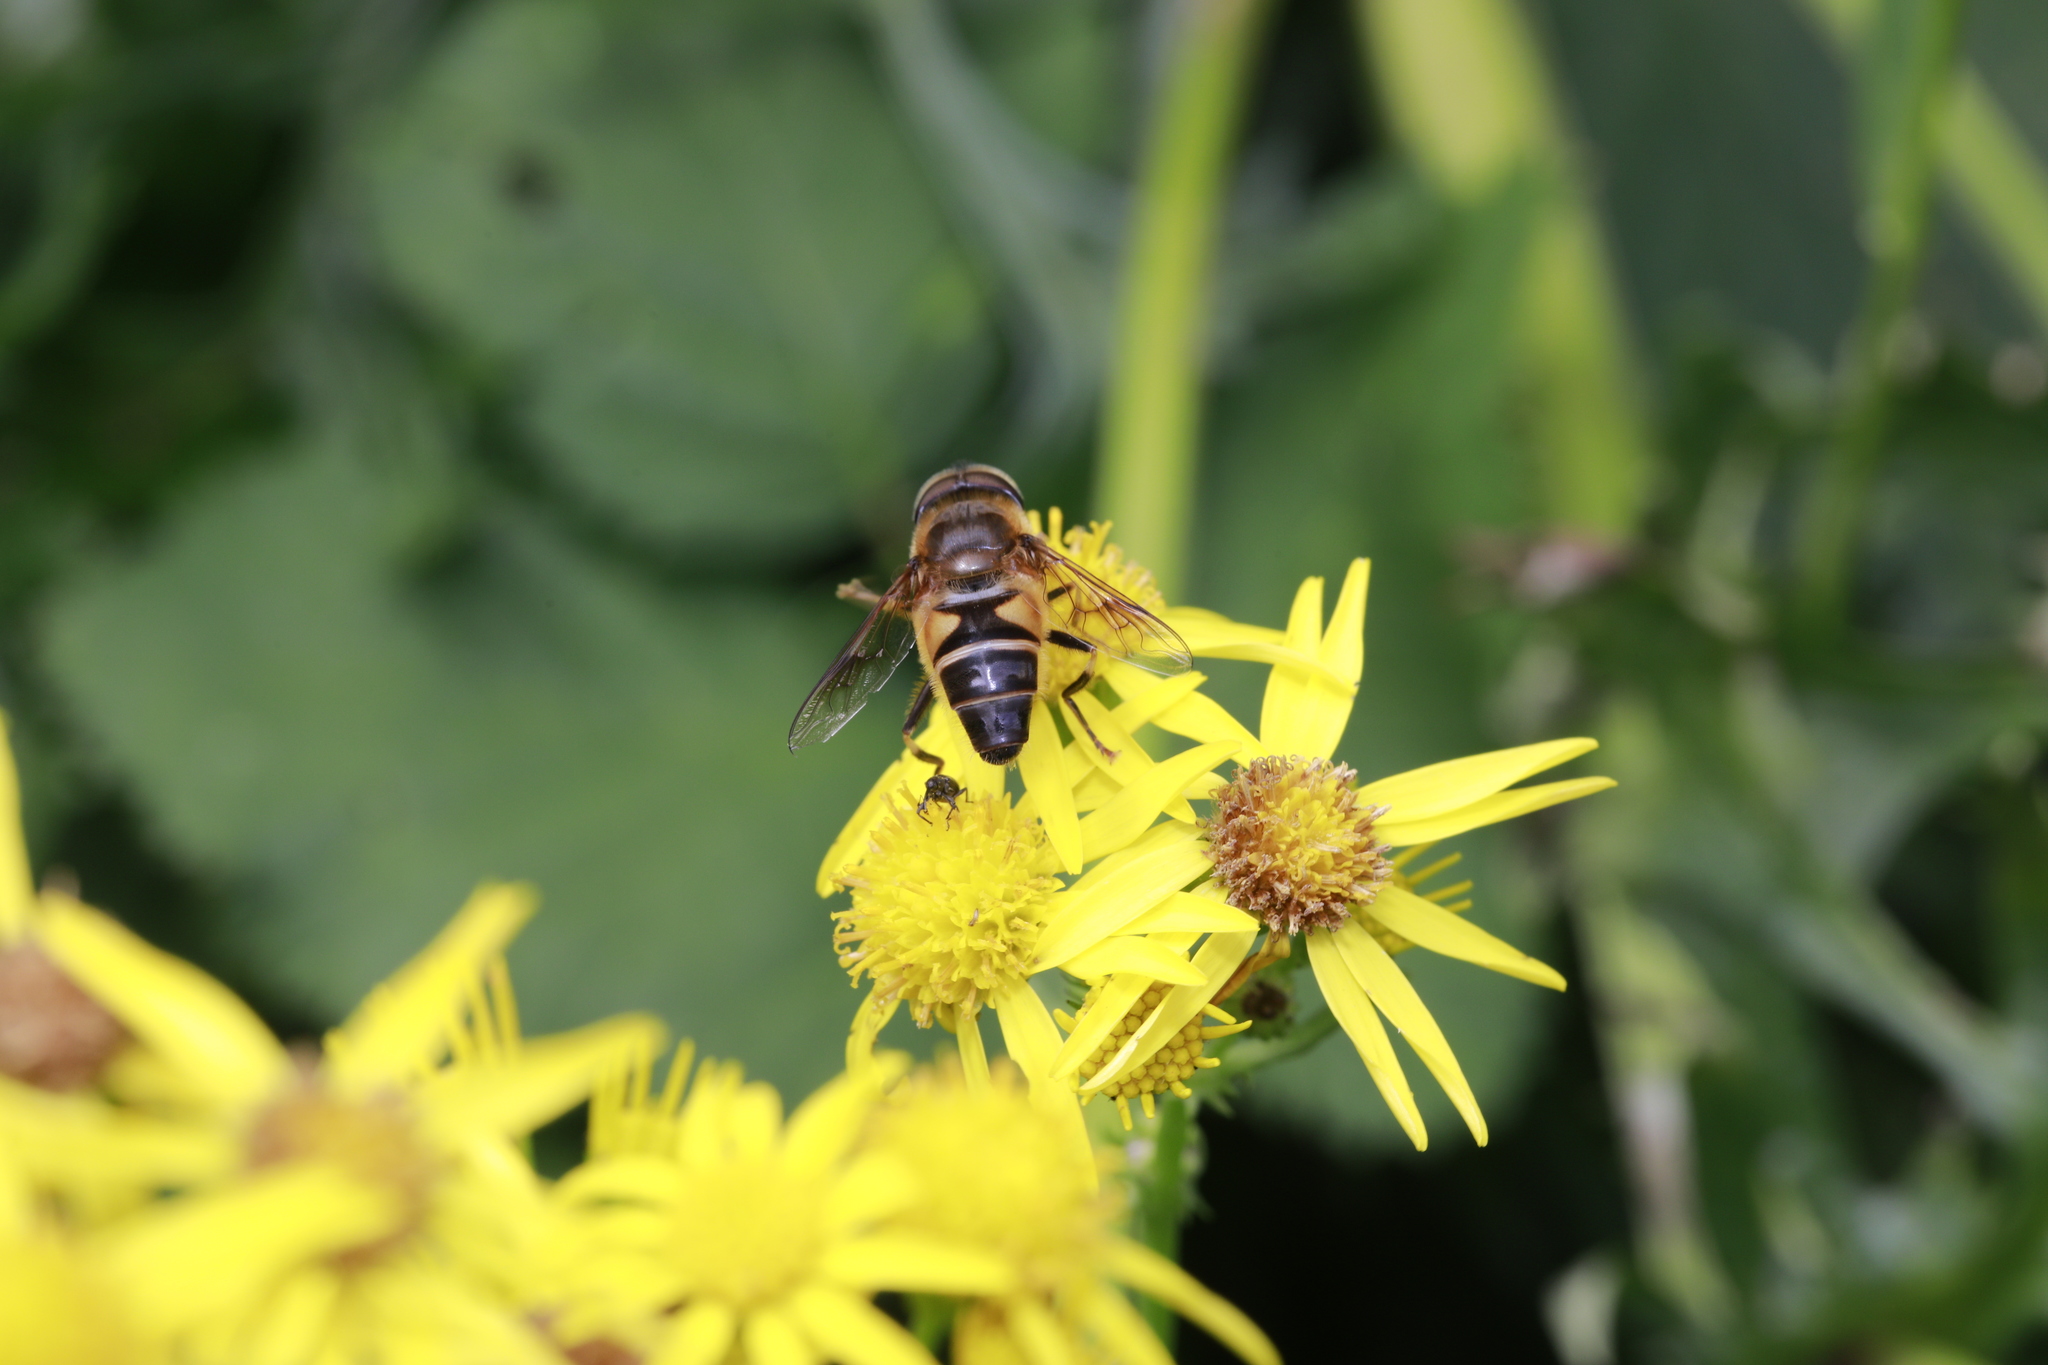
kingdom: Animalia
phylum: Arthropoda
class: Insecta
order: Diptera
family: Syrphidae
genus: Eristalis
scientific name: Eristalis pertinax
